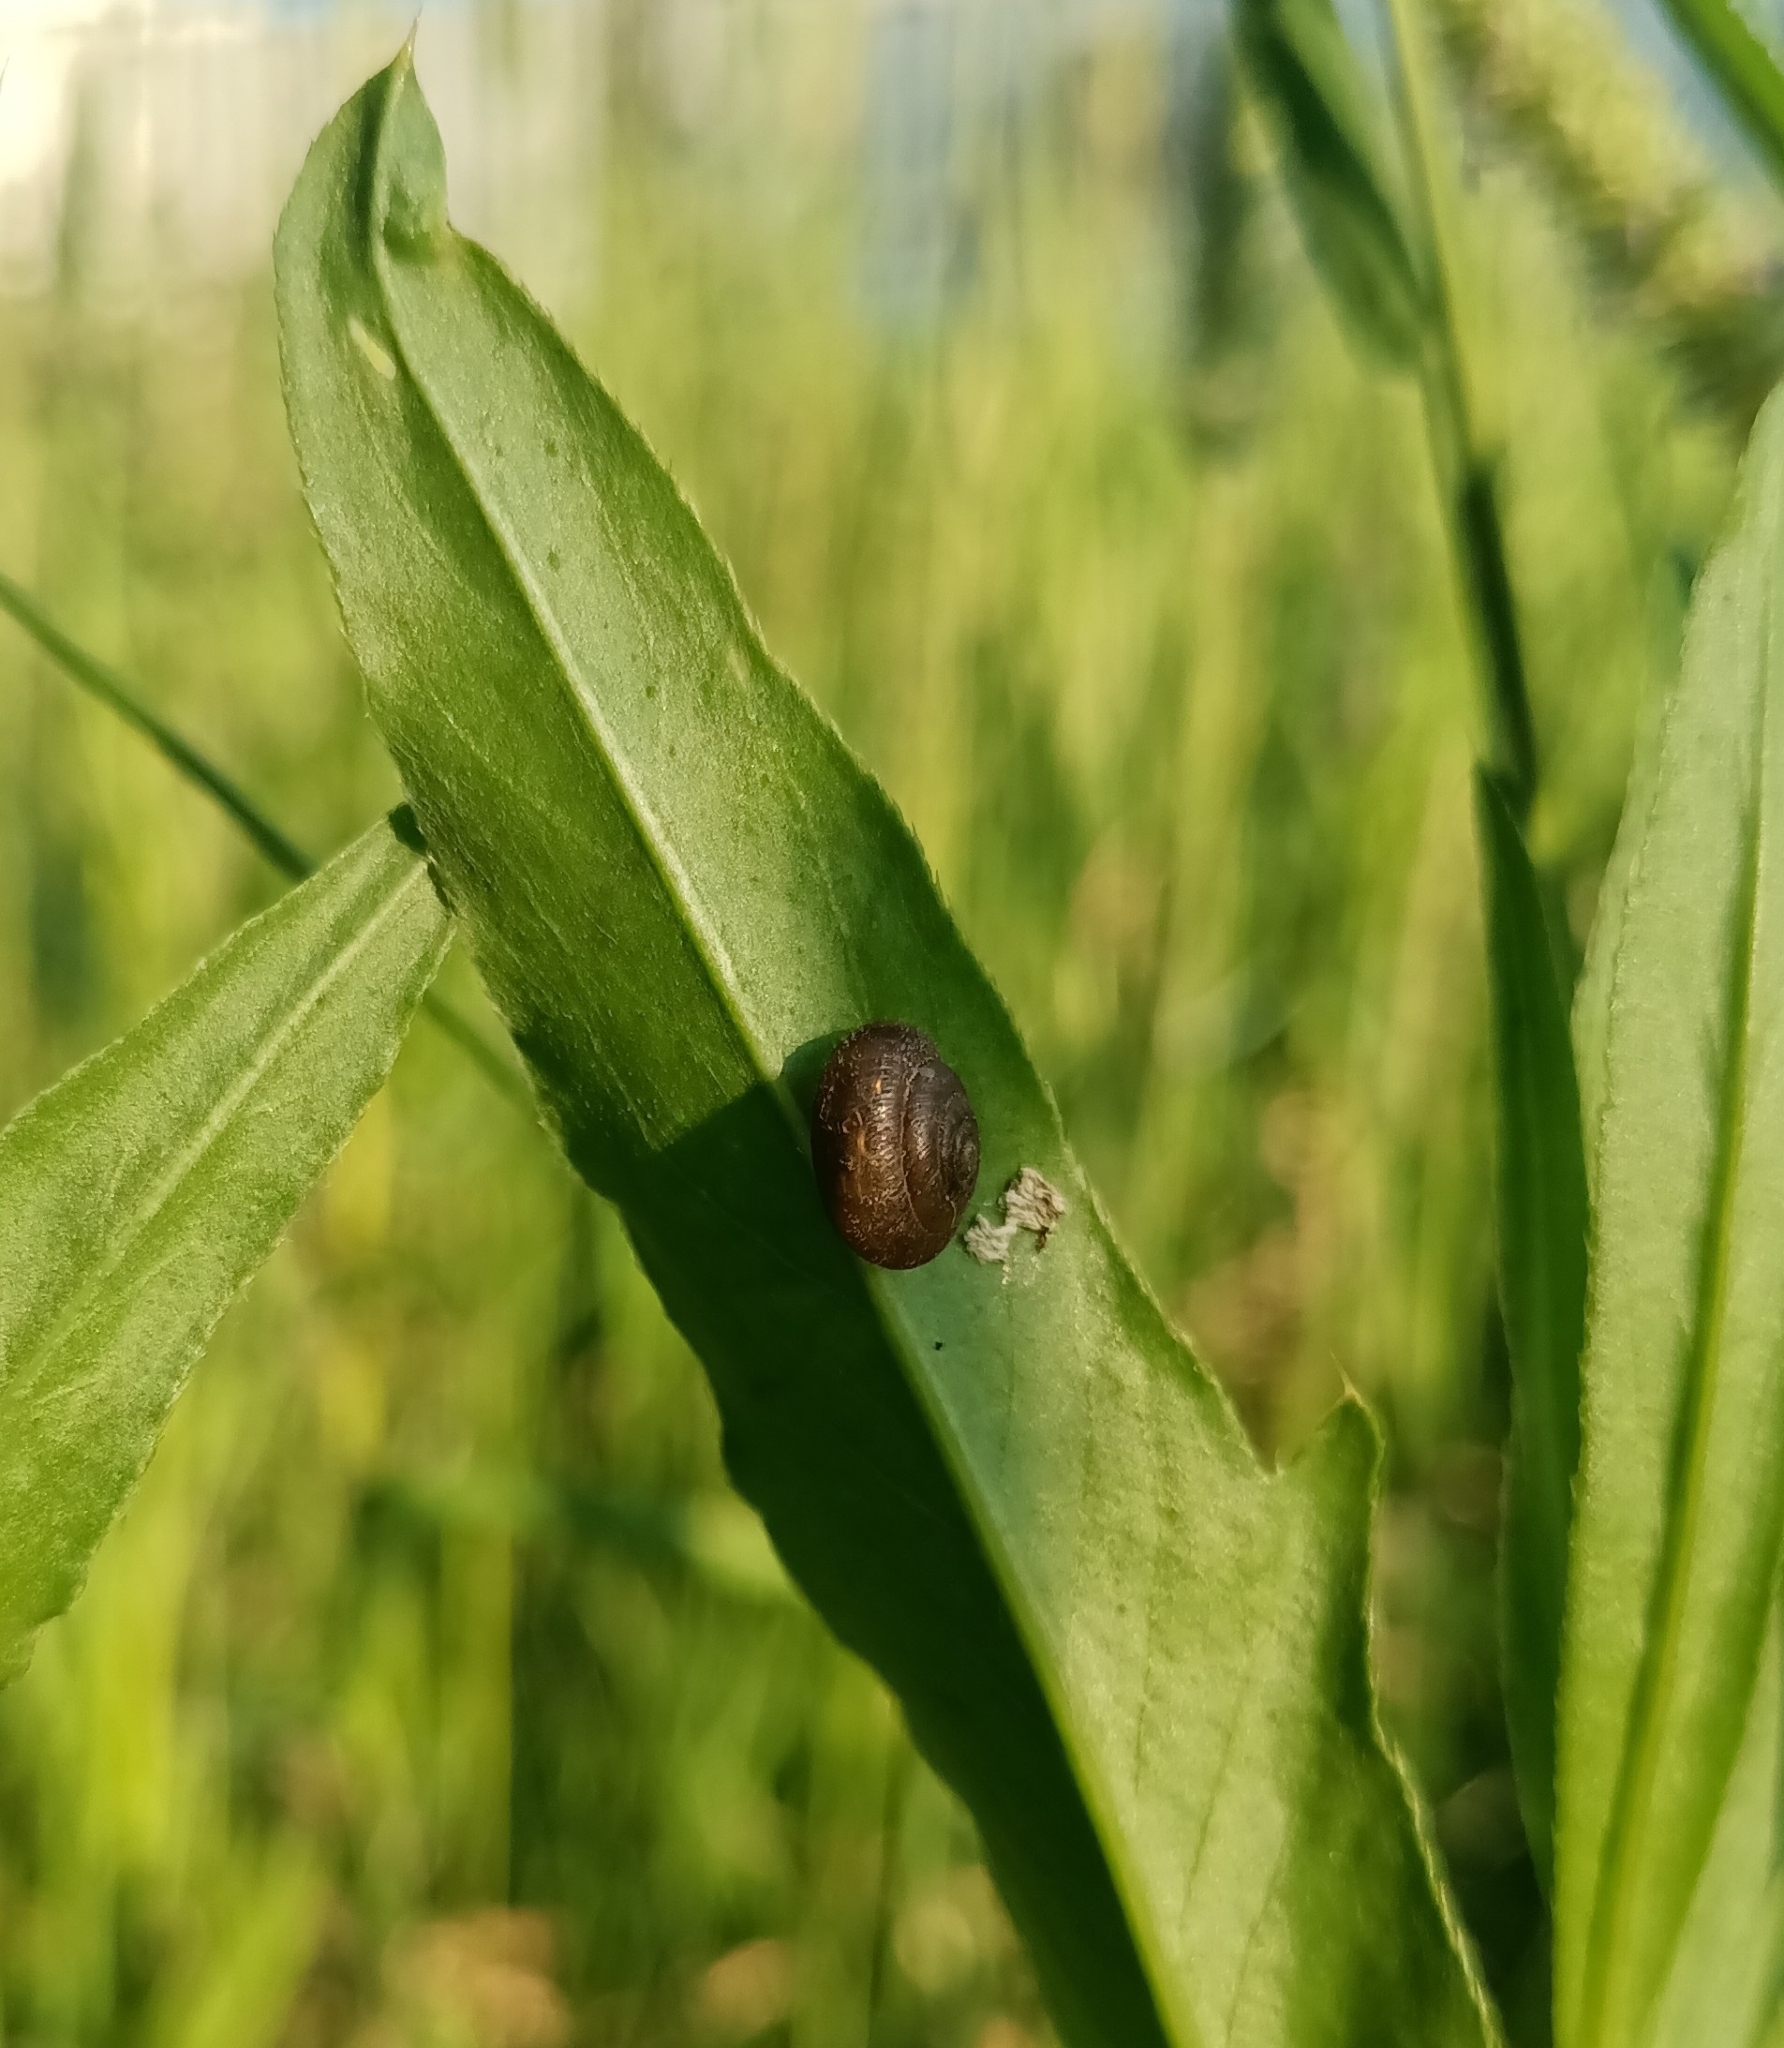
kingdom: Animalia
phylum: Mollusca
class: Gastropoda
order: Stylommatophora
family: Hygromiidae
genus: Trochulus
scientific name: Trochulus hispidus
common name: Hairy snail
